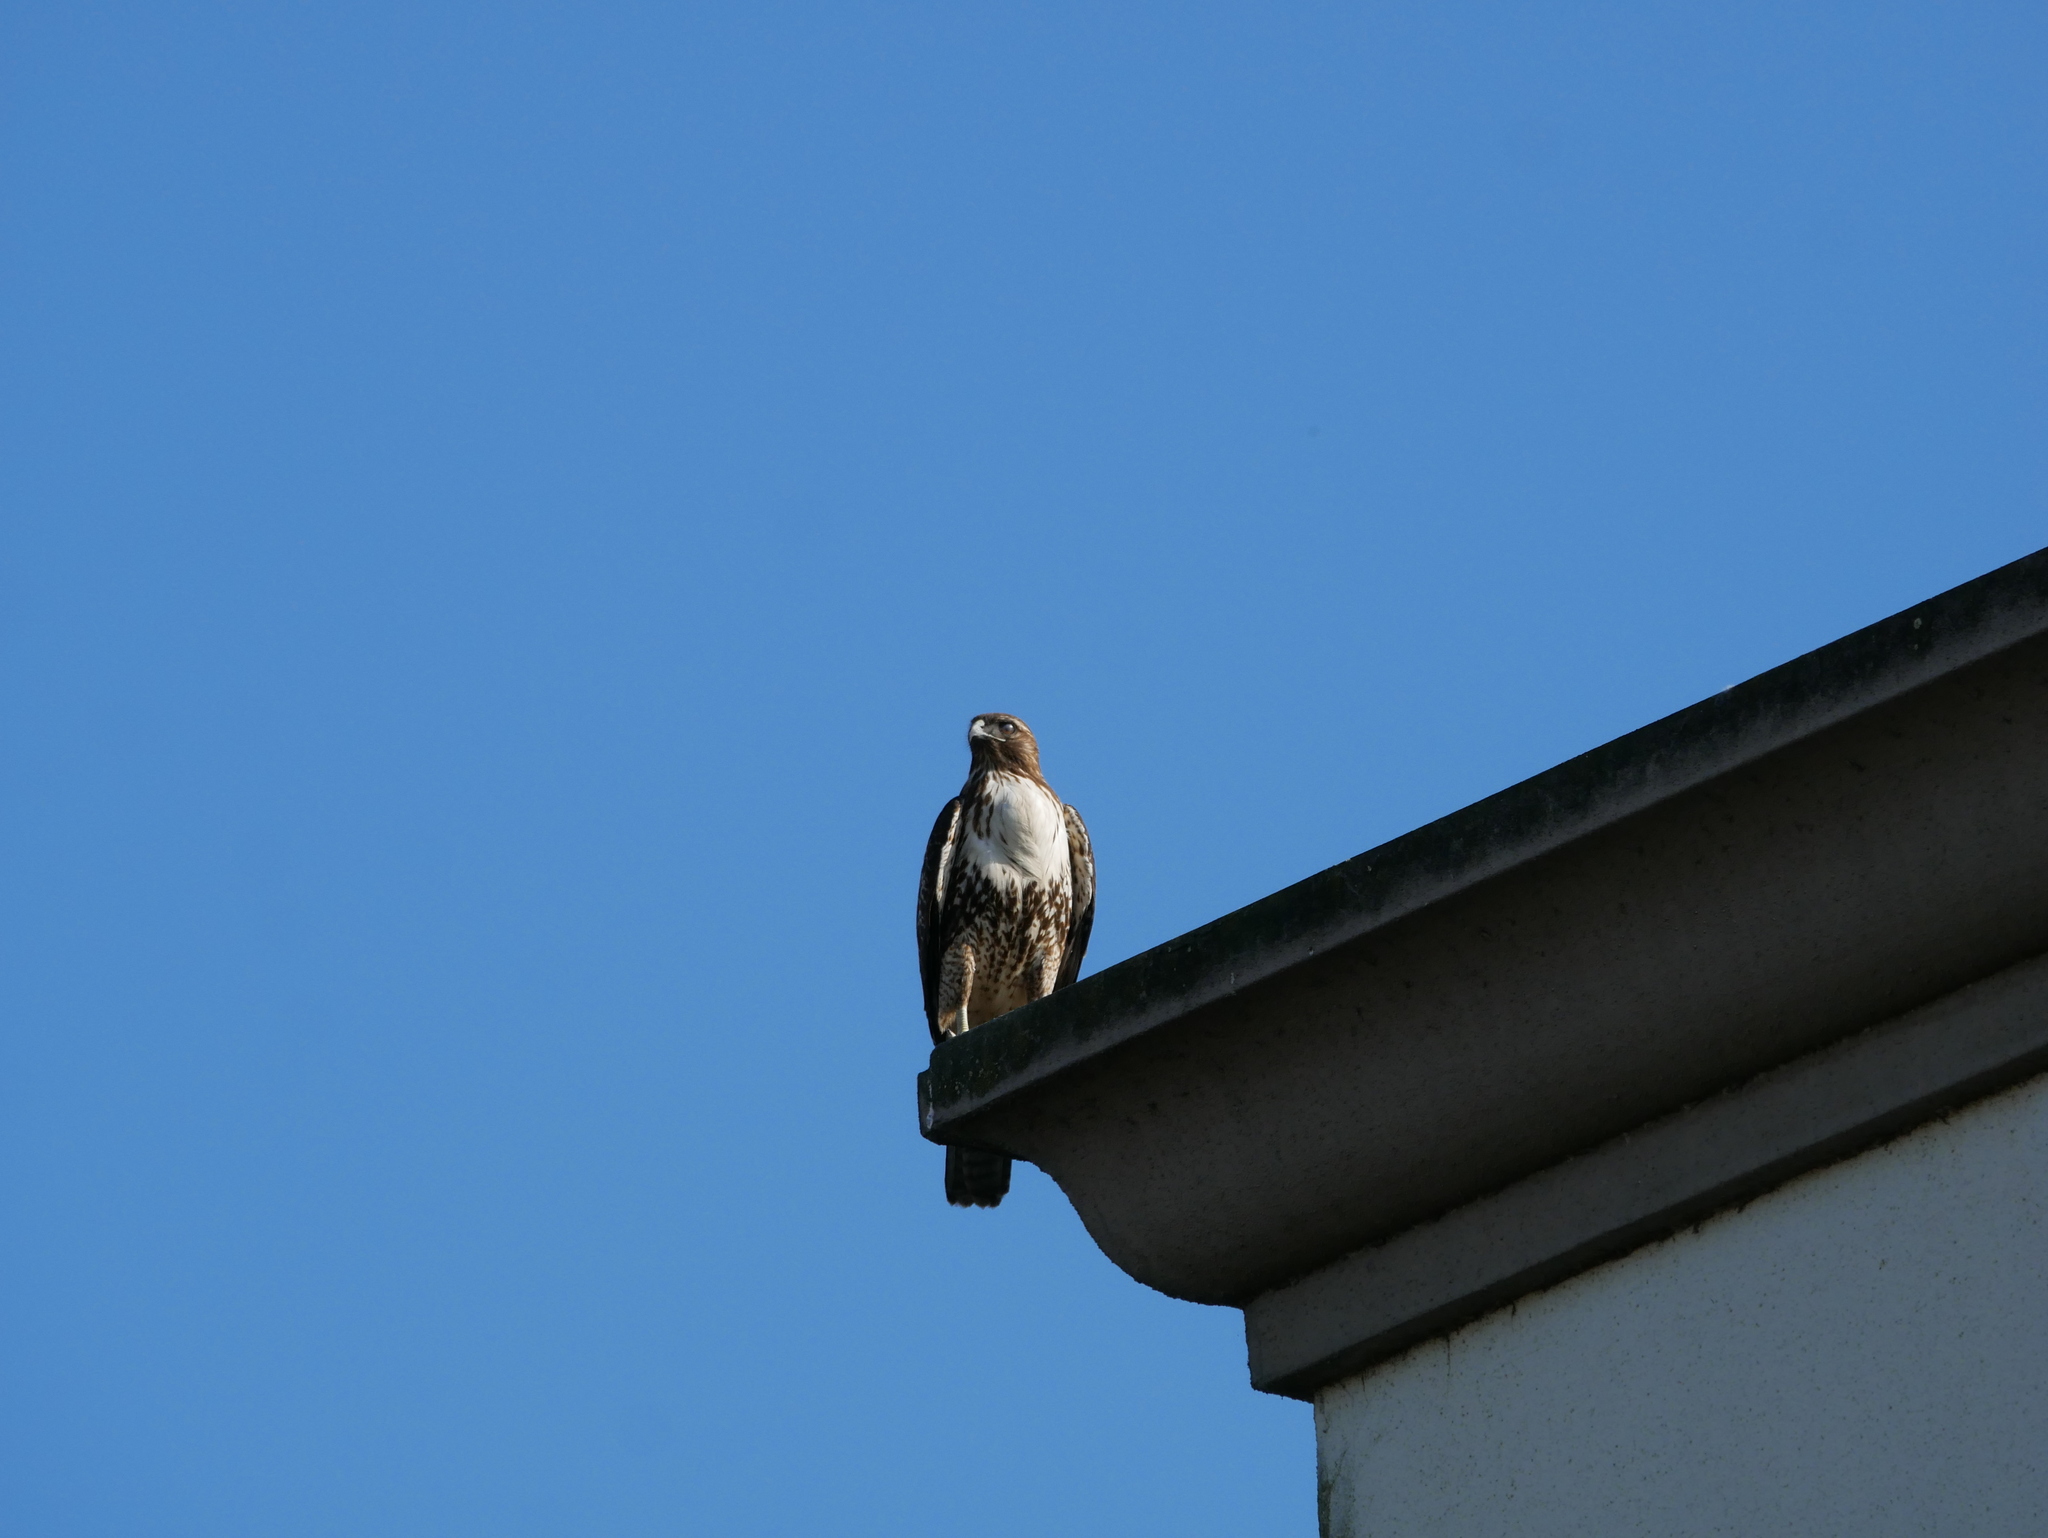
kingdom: Animalia
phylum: Chordata
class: Aves
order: Accipitriformes
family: Accipitridae
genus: Buteo
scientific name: Buteo jamaicensis
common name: Red-tailed hawk
